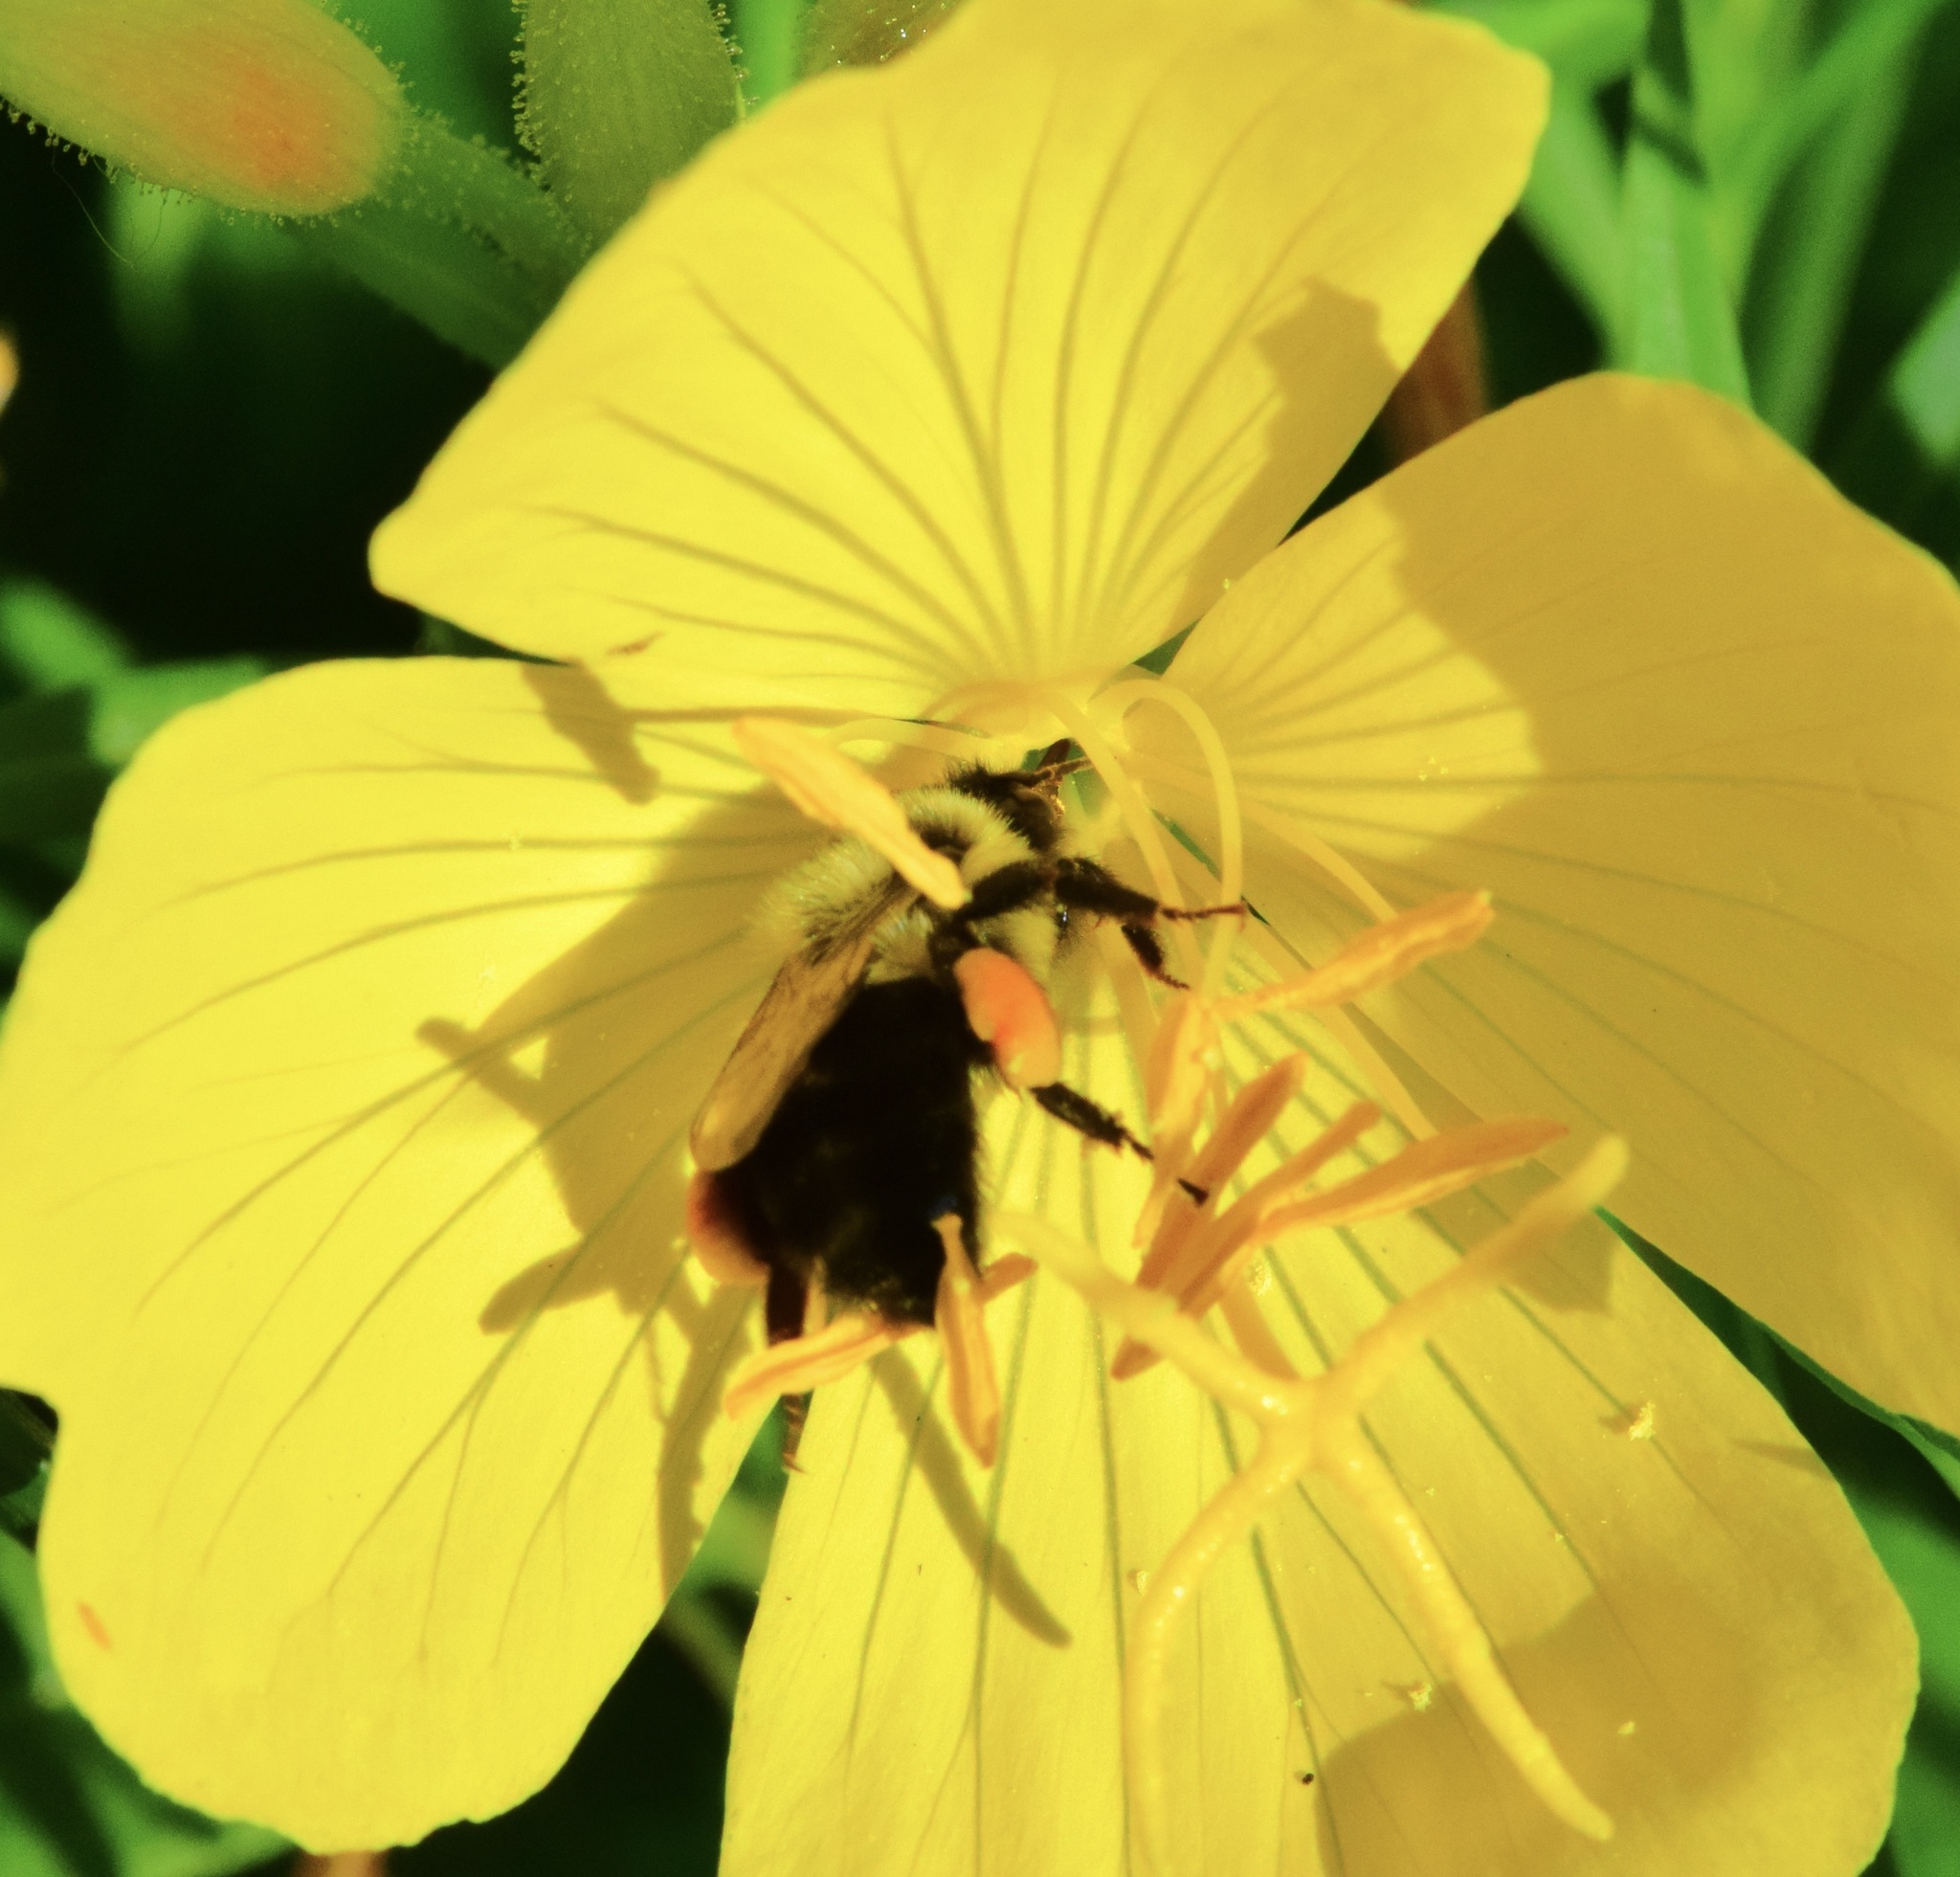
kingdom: Animalia
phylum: Arthropoda
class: Insecta
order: Hymenoptera
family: Apidae
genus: Bombus
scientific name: Bombus impatiens
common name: Common eastern bumble bee
